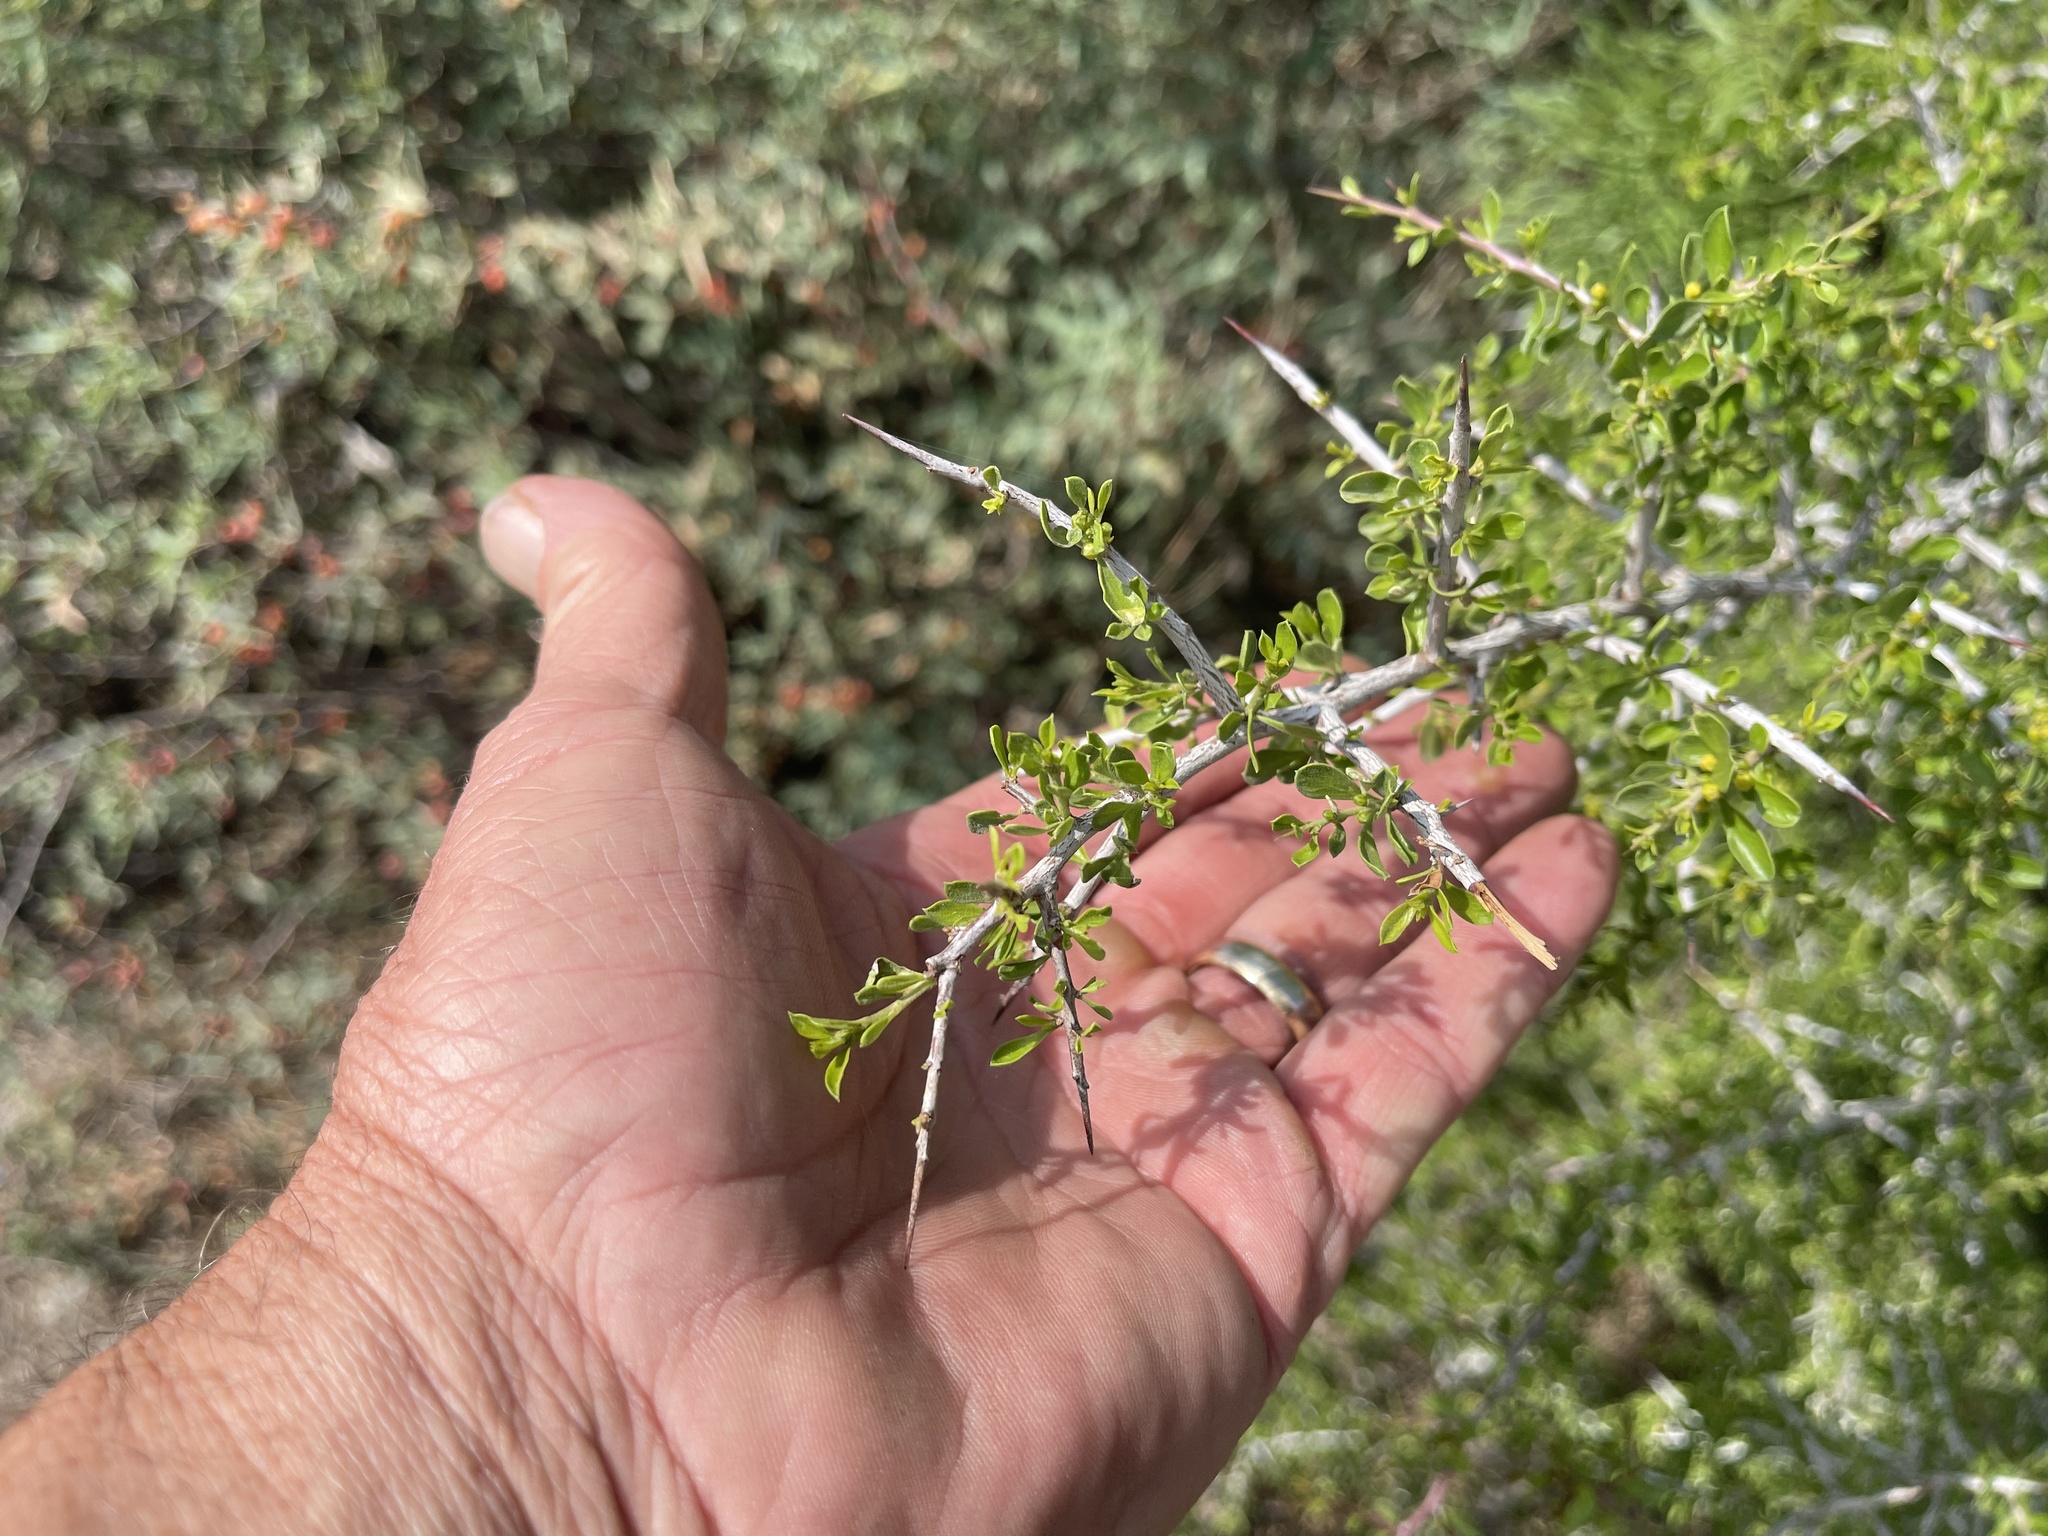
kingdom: Plantae
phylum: Tracheophyta
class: Magnoliopsida
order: Rosales
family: Rhamnaceae
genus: Condalia
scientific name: Condalia viridis
